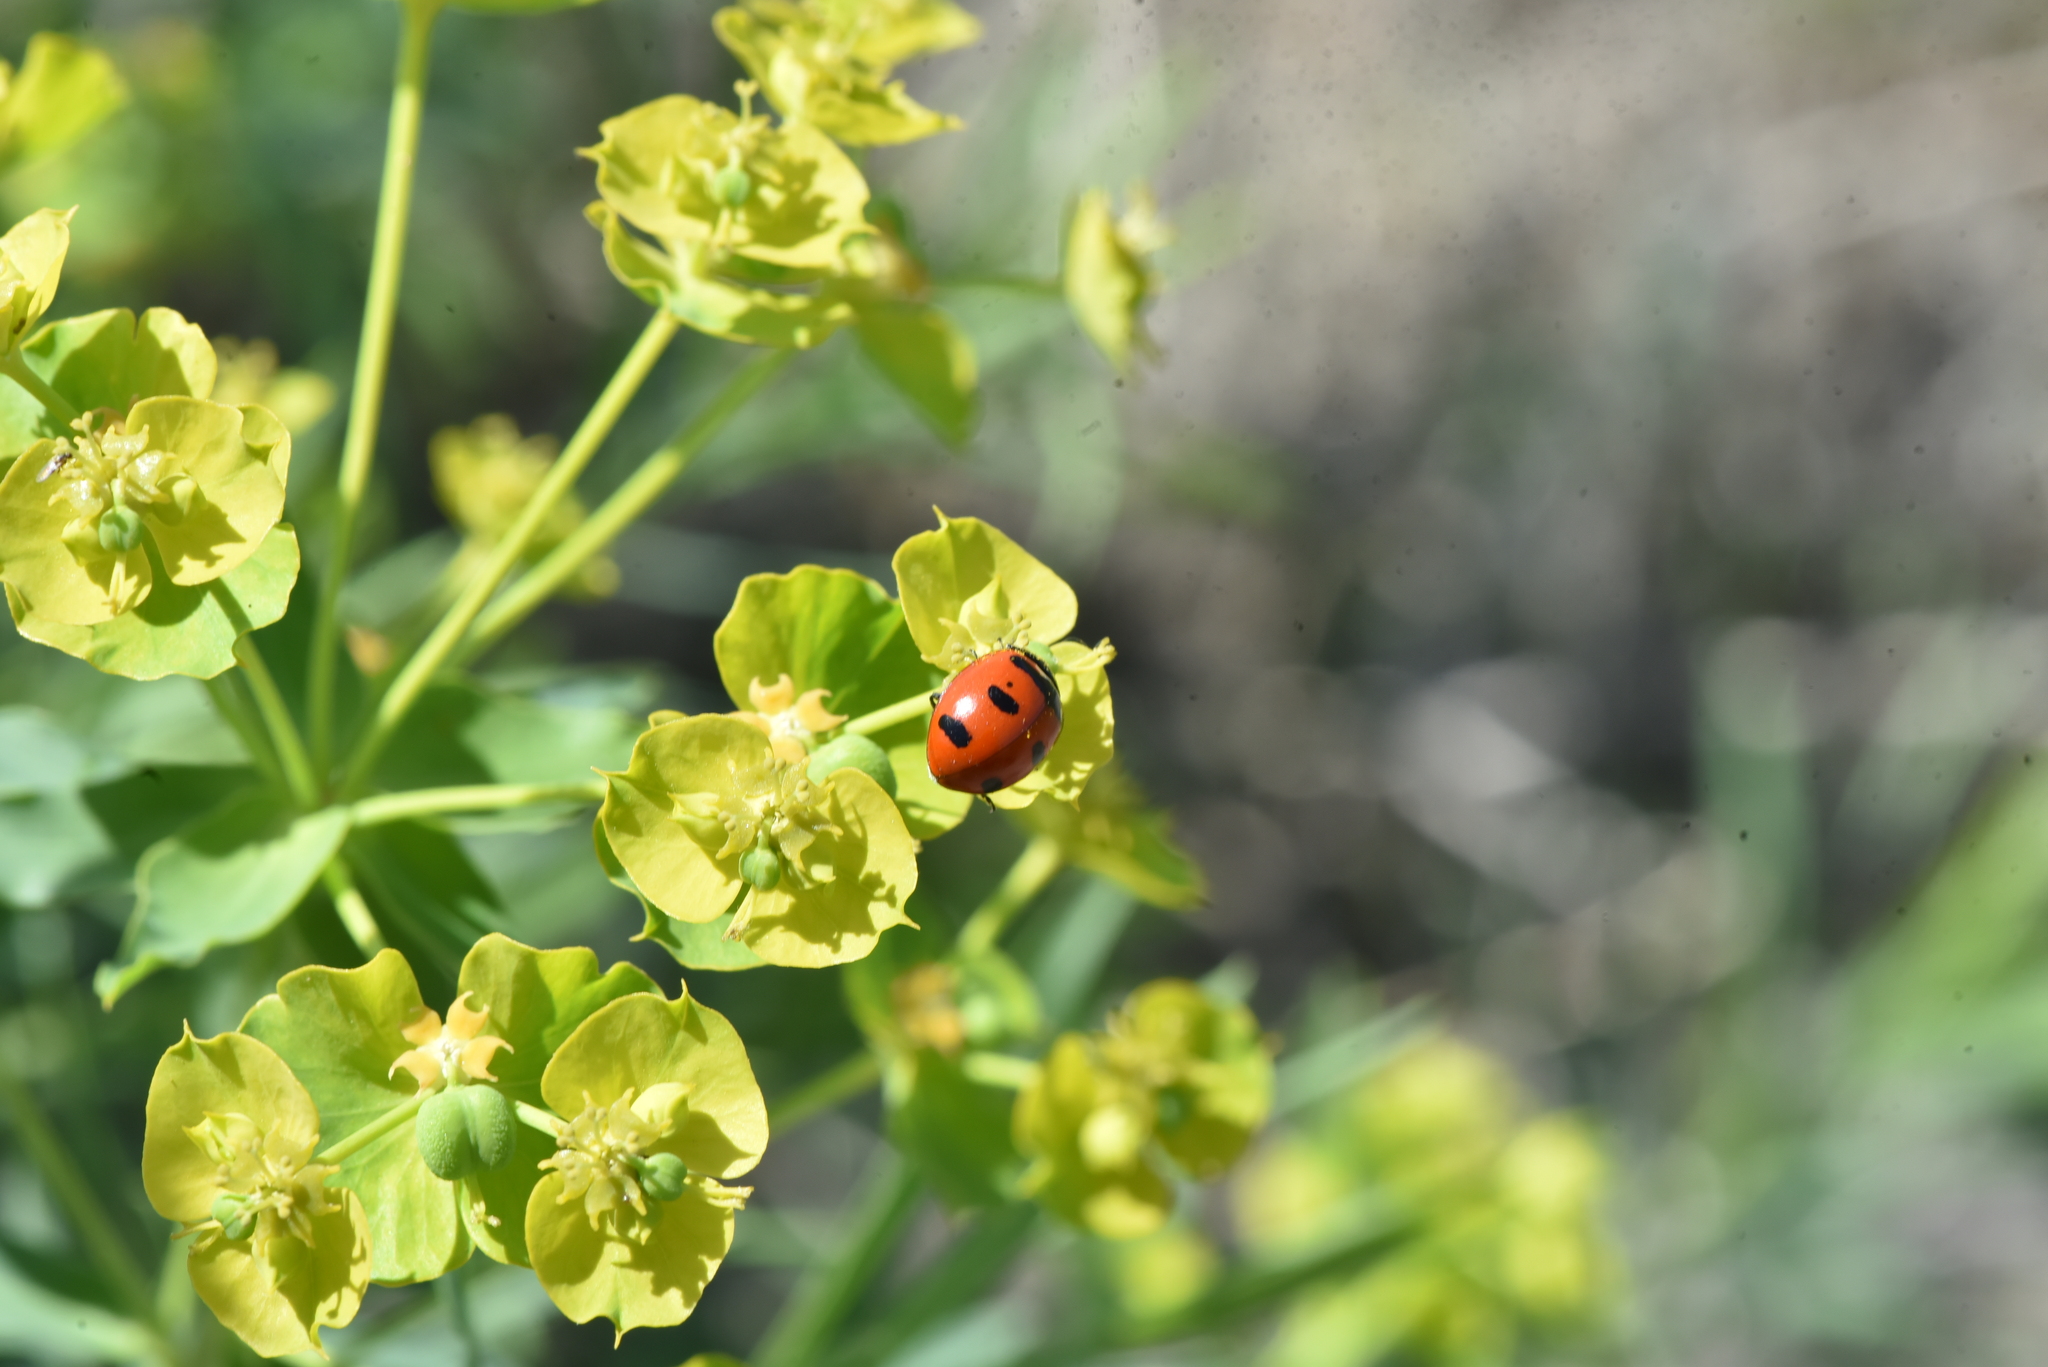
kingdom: Animalia
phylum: Arthropoda
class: Insecta
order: Coleoptera
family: Coccinellidae
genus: Coccinella
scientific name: Coccinella transversoguttata
